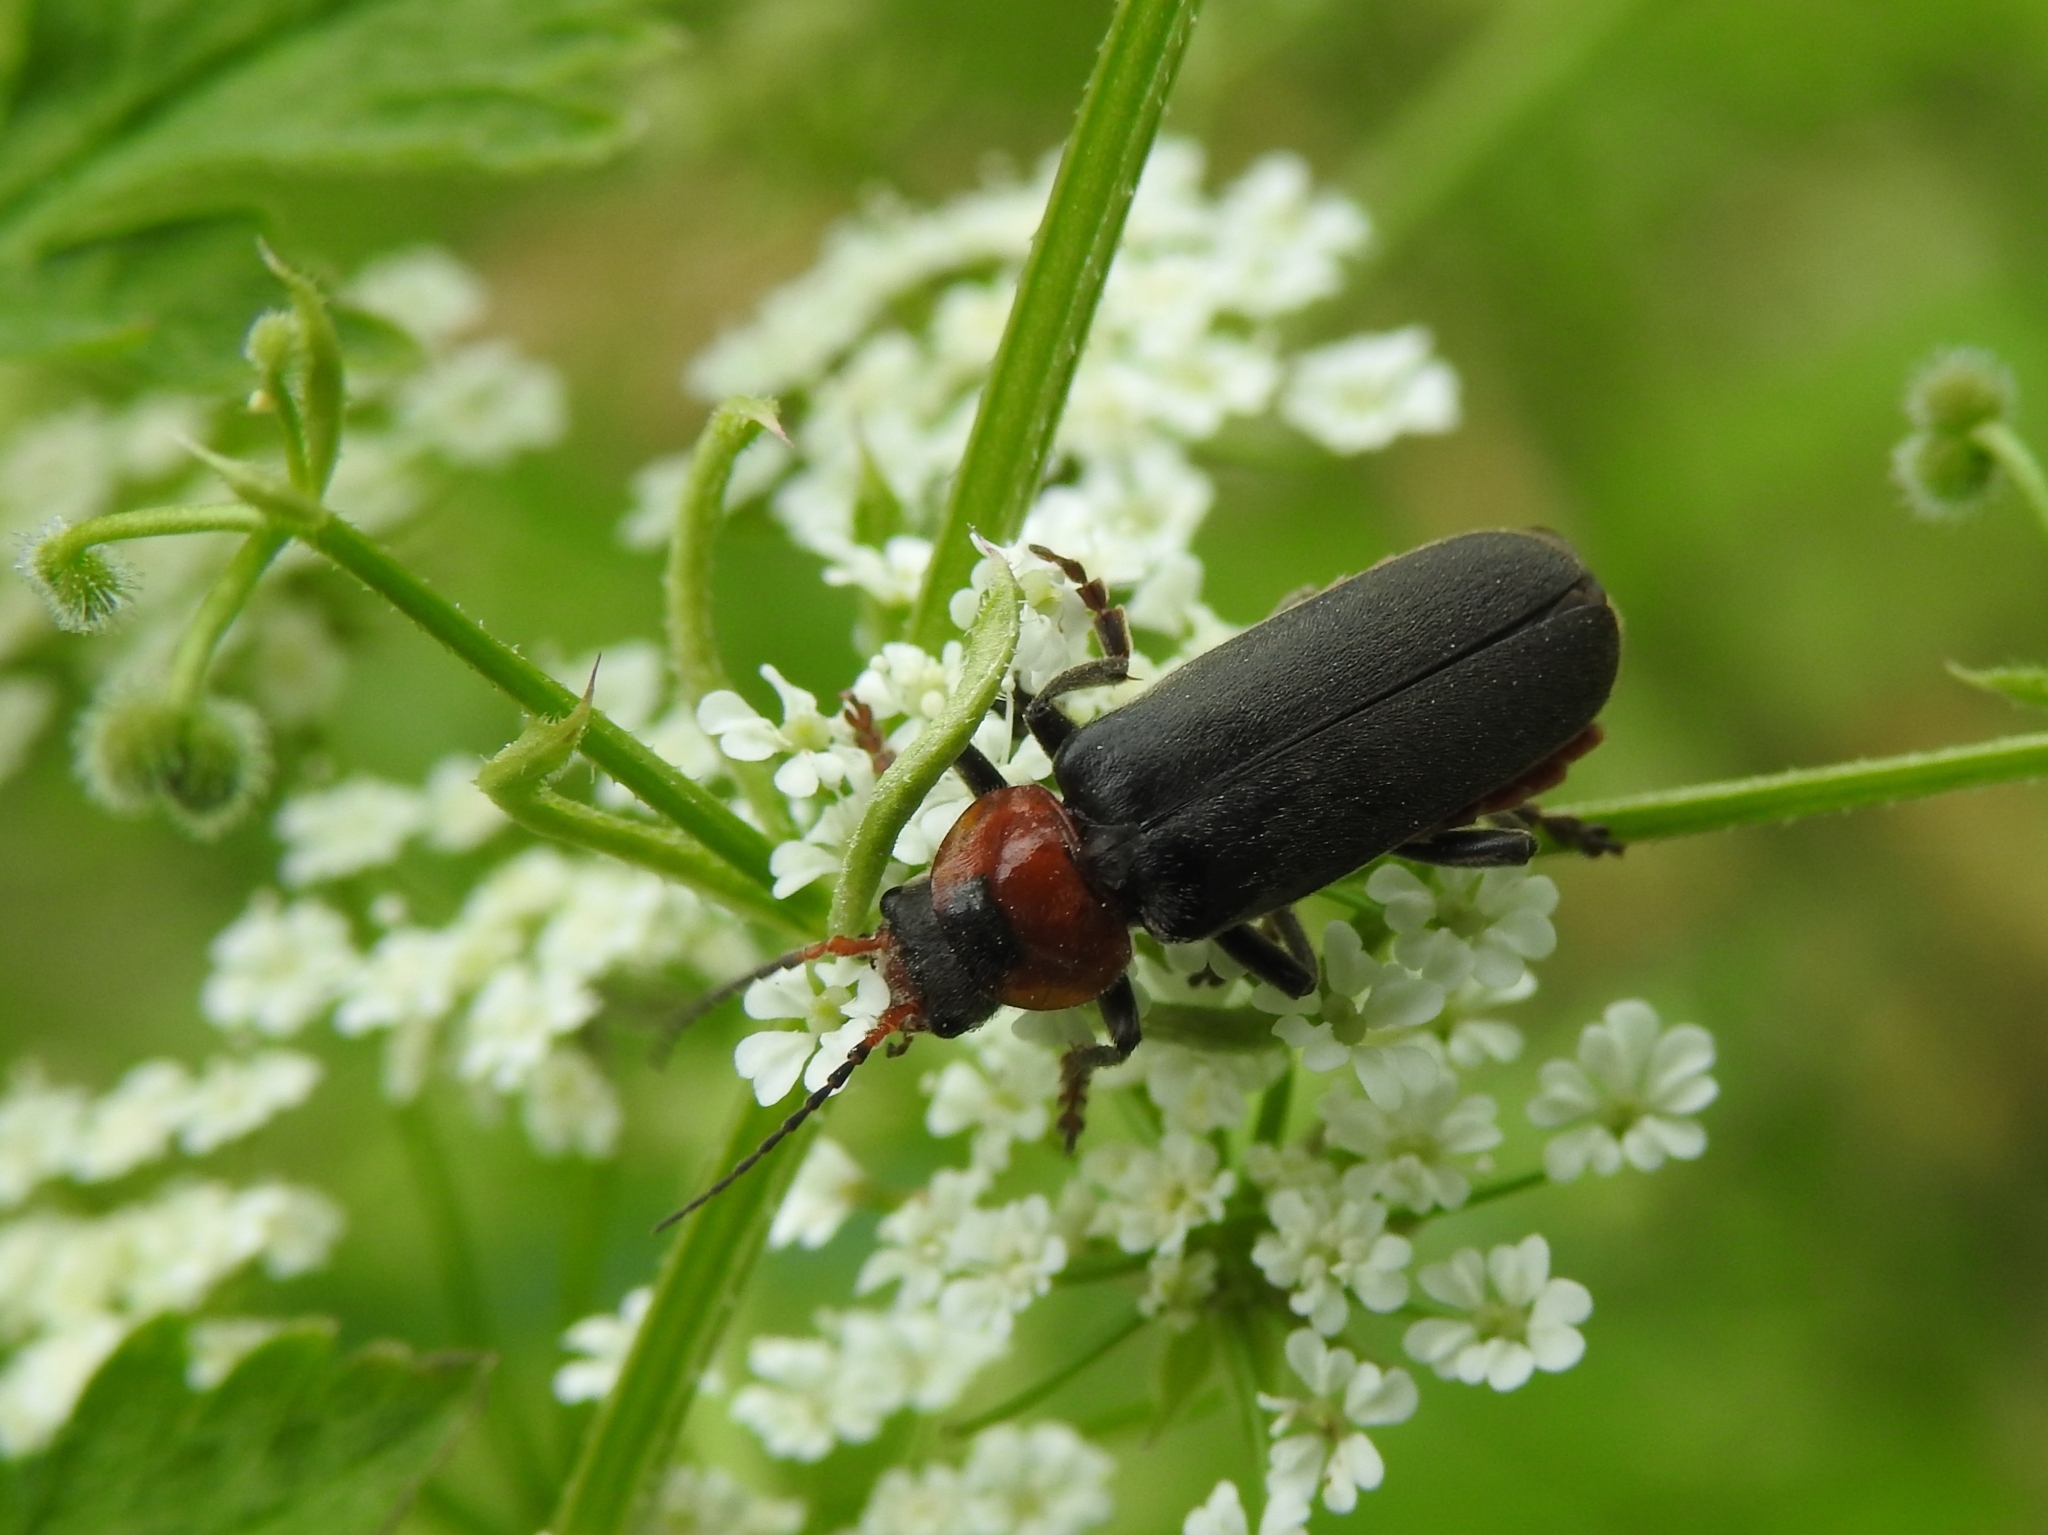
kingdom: Animalia
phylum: Arthropoda
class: Insecta
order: Coleoptera
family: Cantharidae
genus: Cantharis
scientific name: Cantharis fusca
